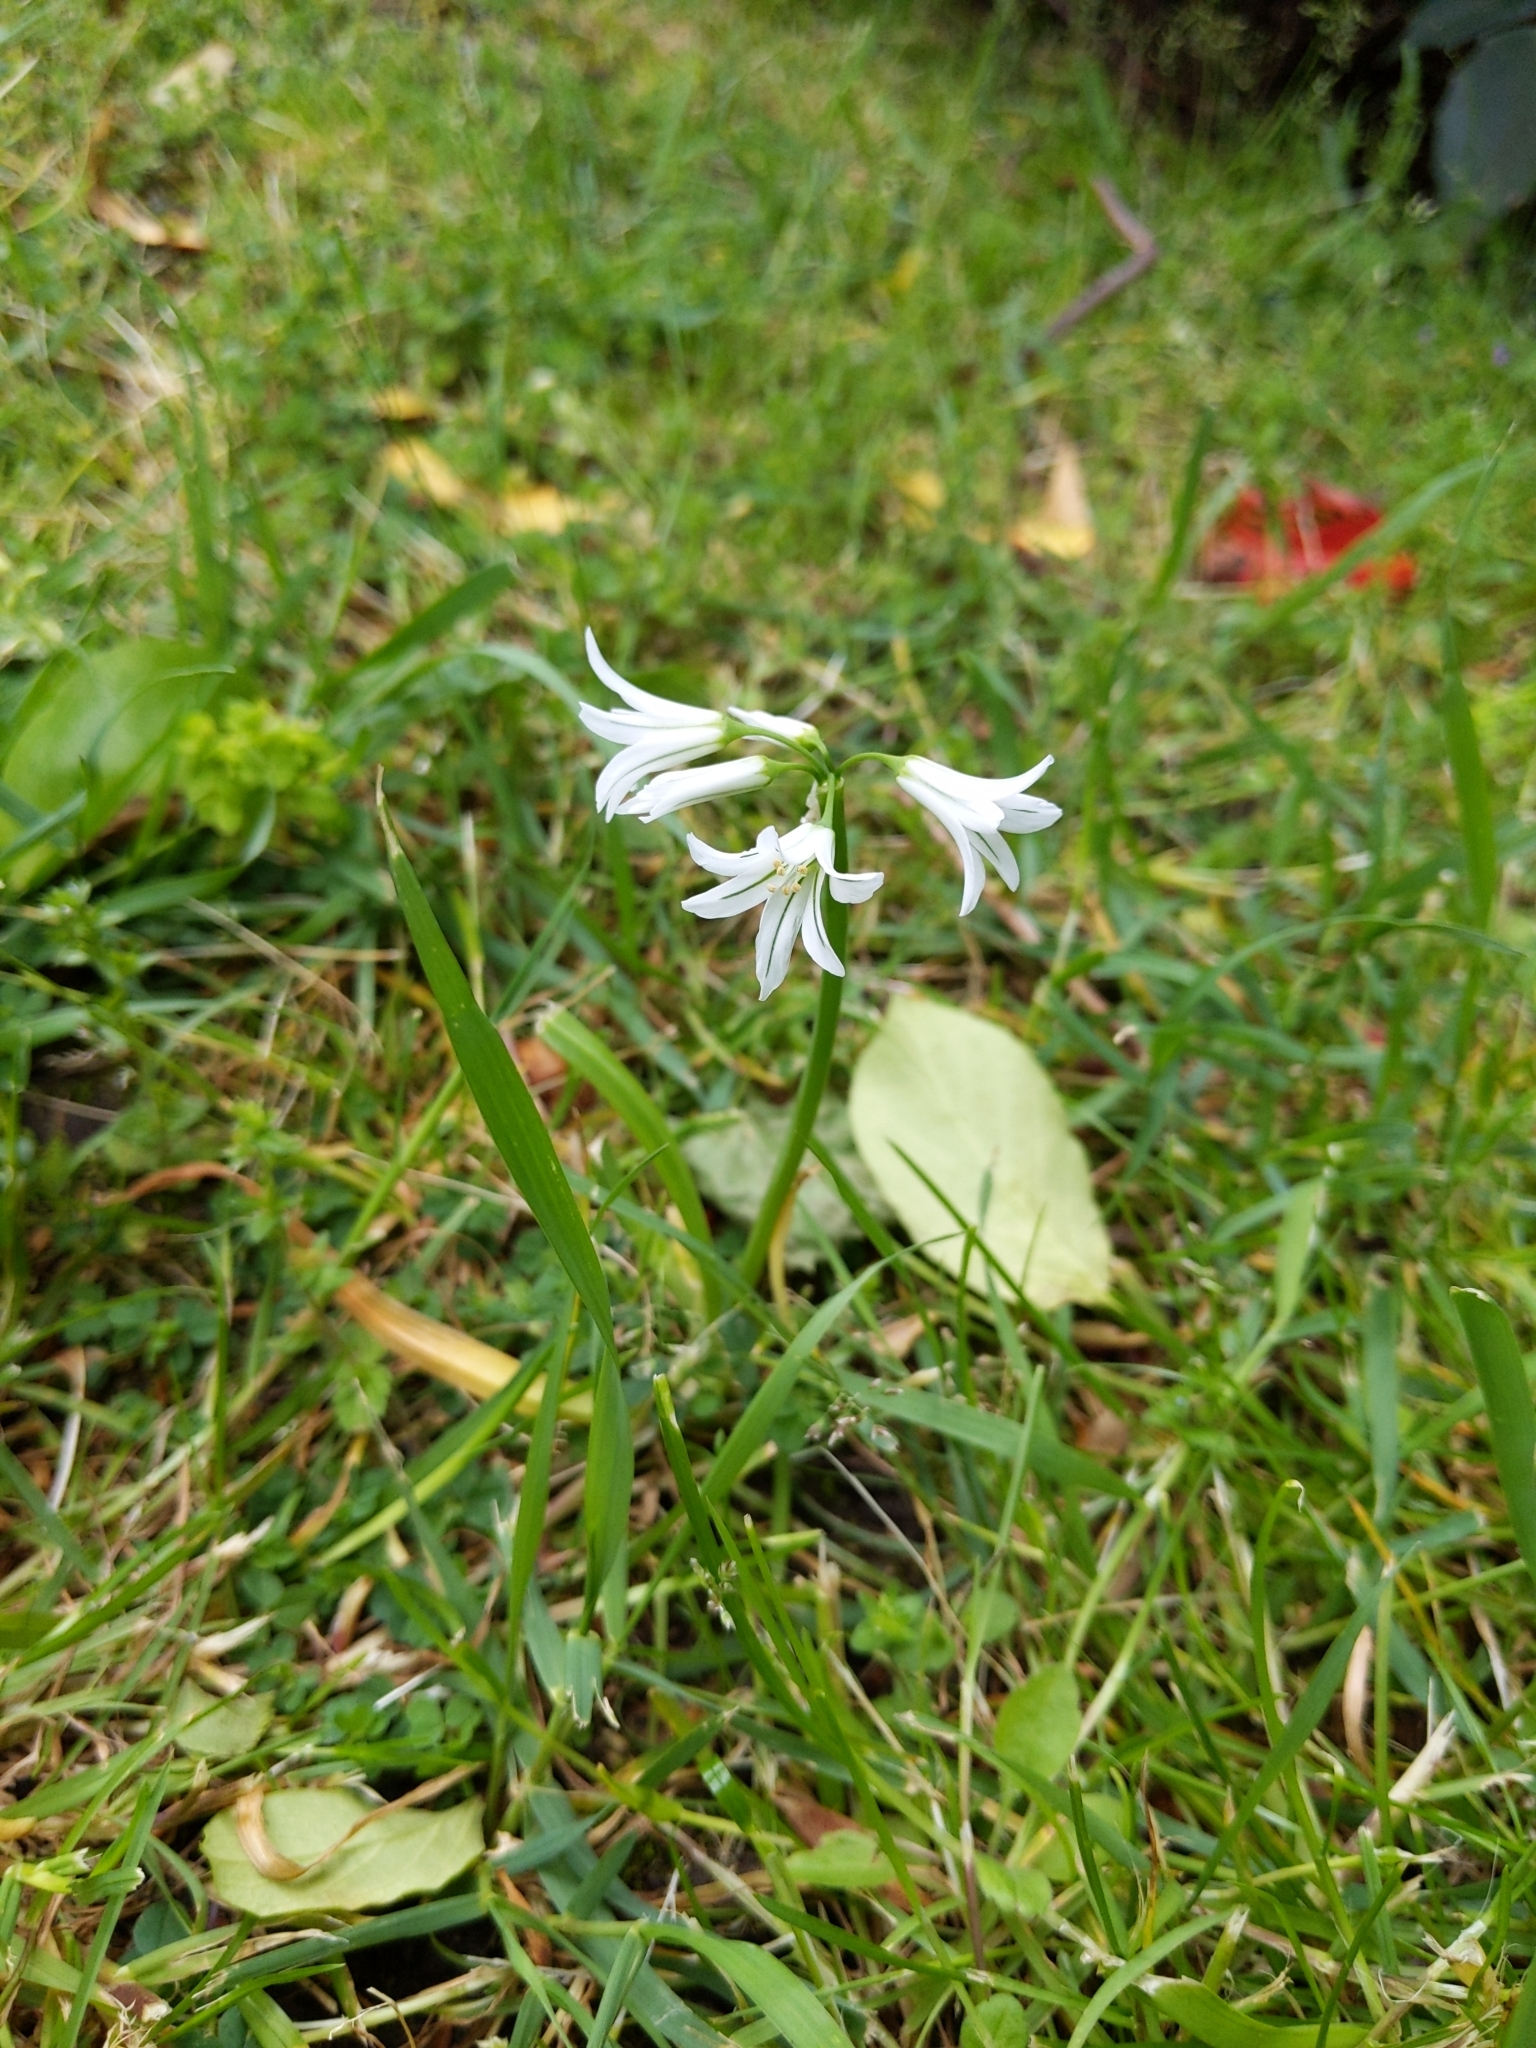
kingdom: Plantae
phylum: Tracheophyta
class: Liliopsida
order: Asparagales
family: Amaryllidaceae
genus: Allium
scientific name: Allium triquetrum
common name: Three-cornered garlic
